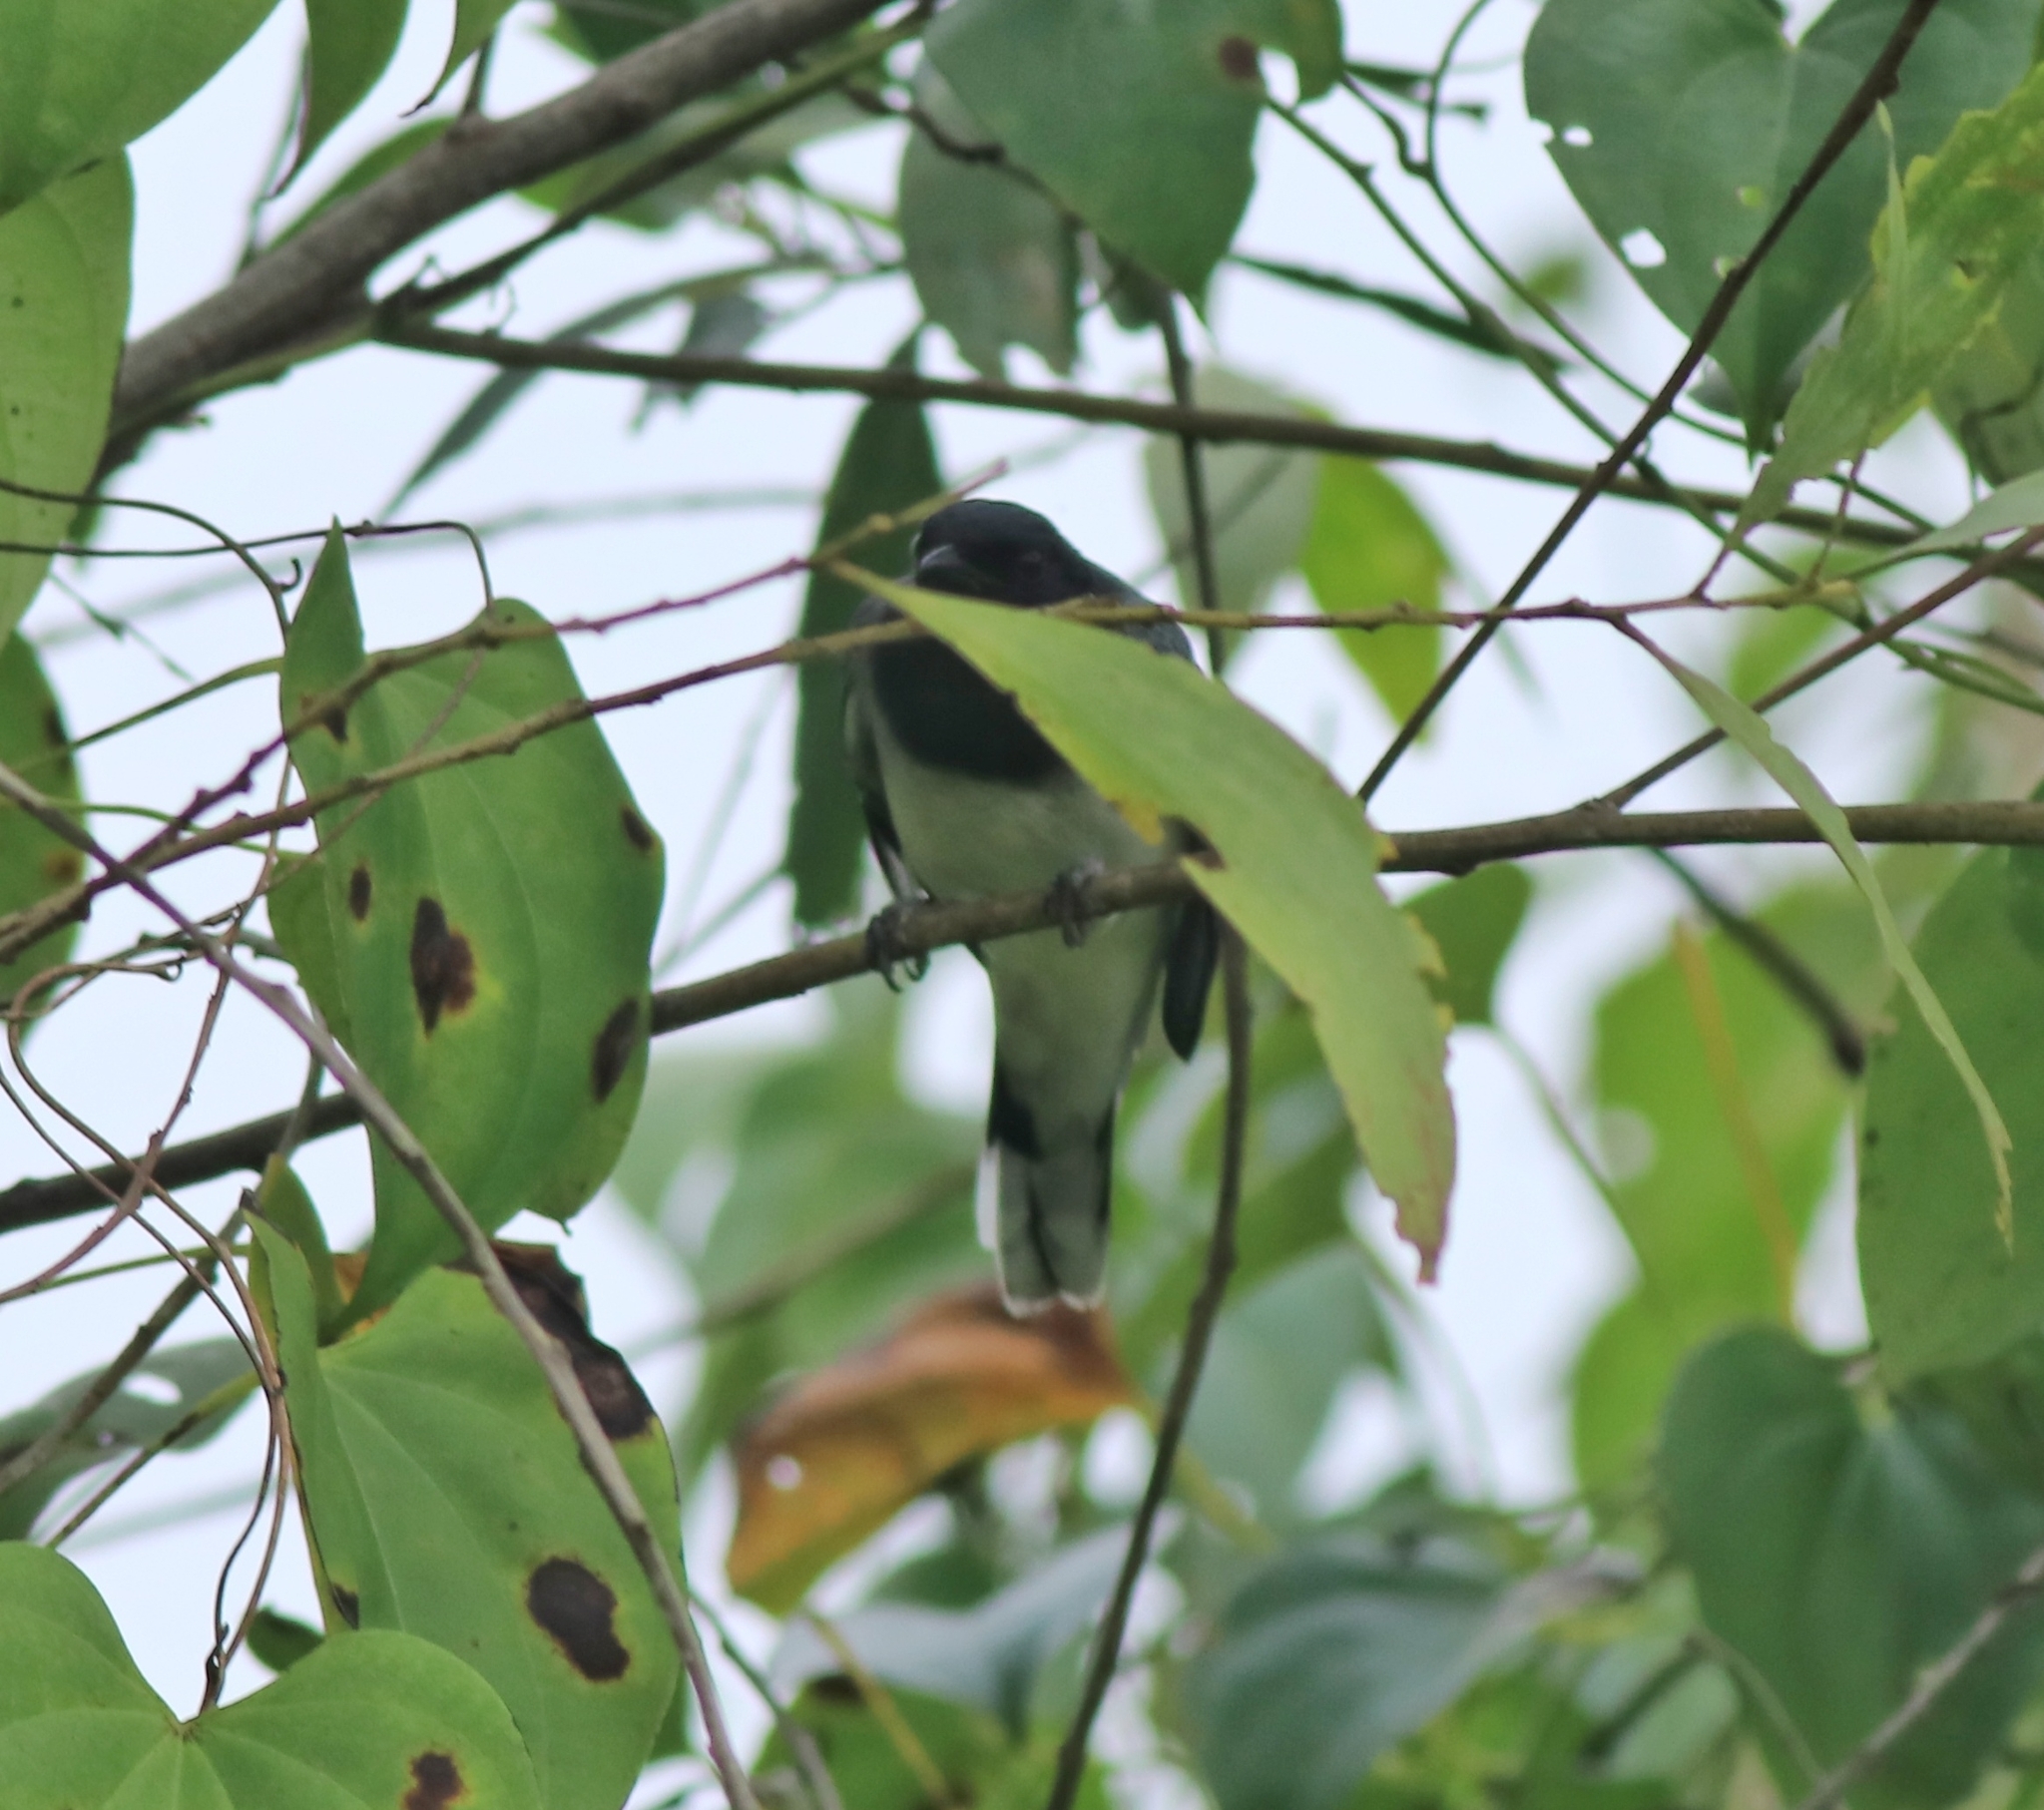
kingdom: Animalia
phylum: Chordata
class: Aves
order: Passeriformes
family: Campephagidae
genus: Coracina
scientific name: Coracina melanoptera
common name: Black-headed cuckooshrike
